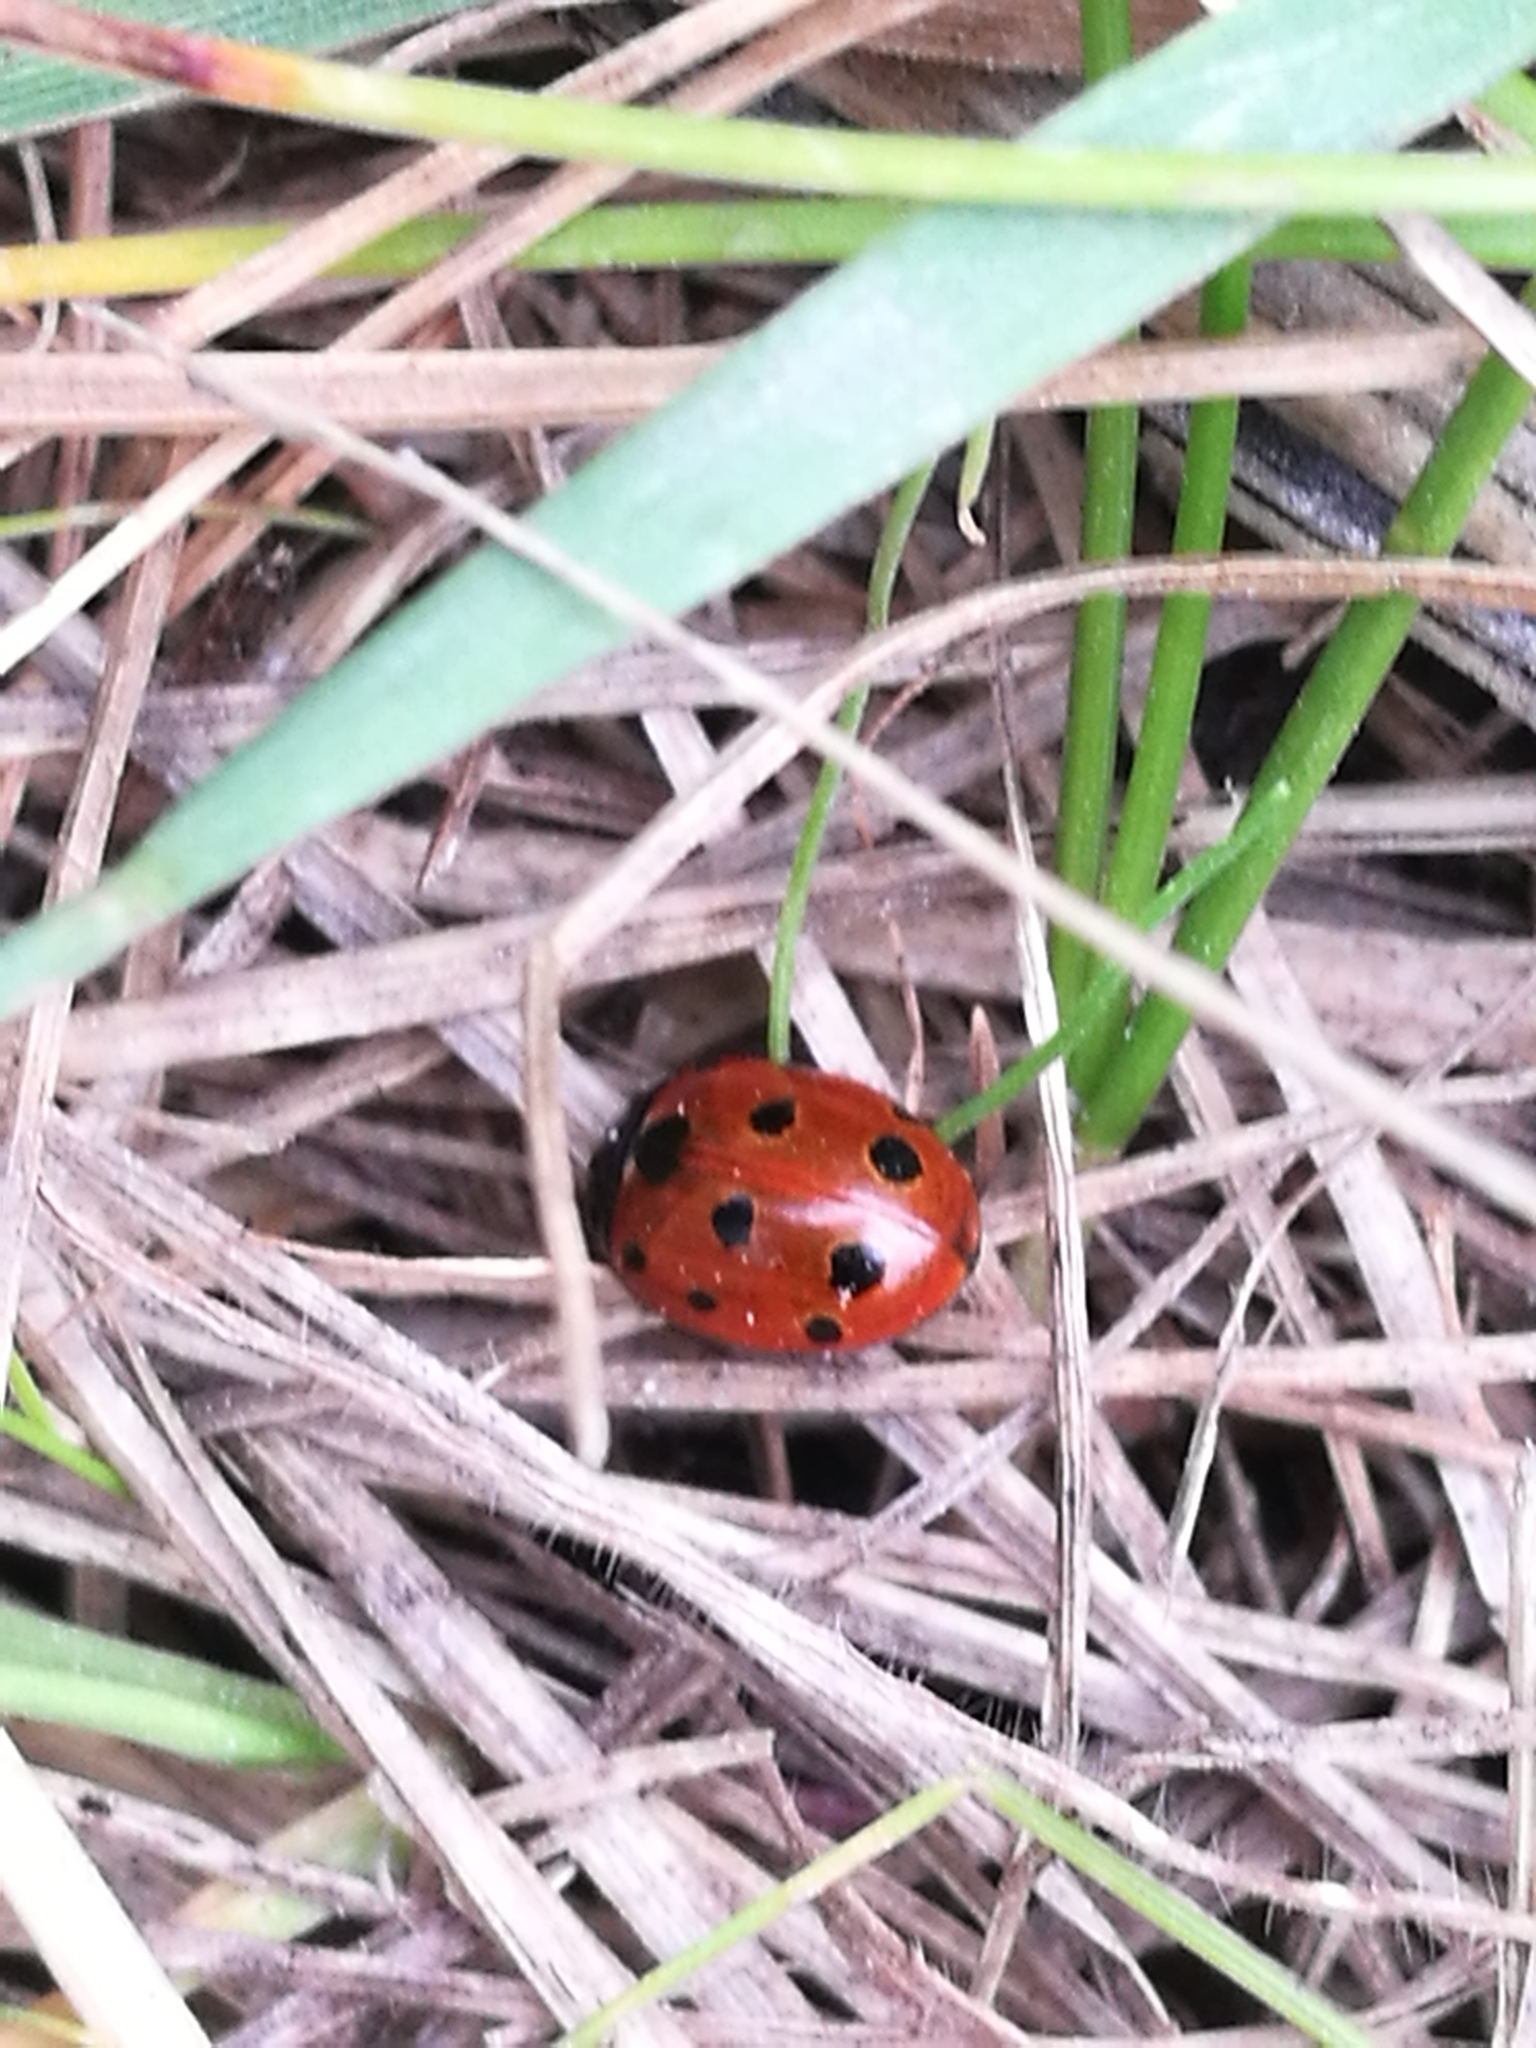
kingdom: Animalia
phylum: Arthropoda
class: Insecta
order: Coleoptera
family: Coccinellidae
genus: Coccinella
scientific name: Coccinella undecimpunctata
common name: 11-spot ladybird
